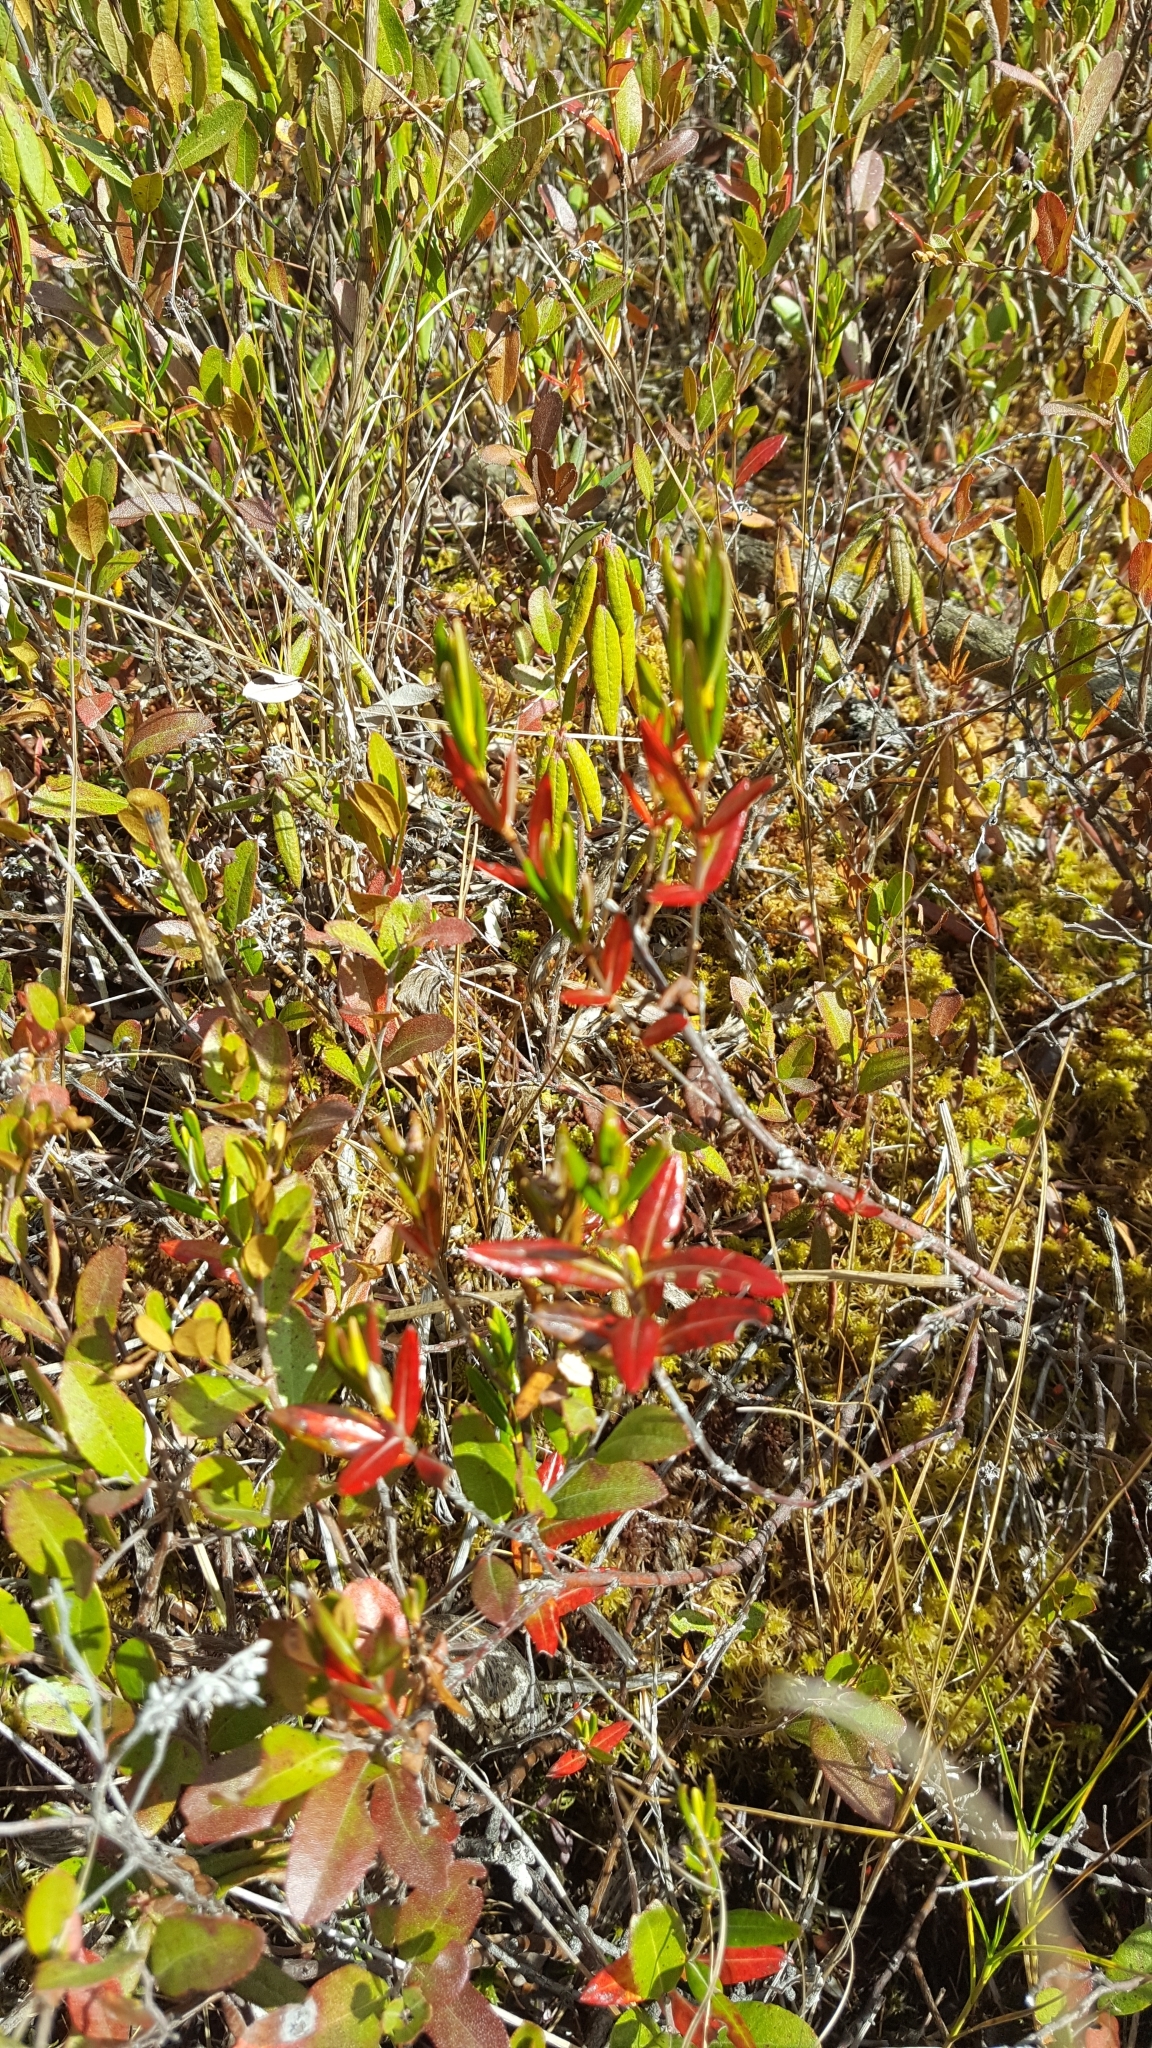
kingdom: Plantae
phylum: Tracheophyta
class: Magnoliopsida
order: Ericales
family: Ericaceae
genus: Kalmia
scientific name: Kalmia polifolia
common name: Bog-laurel
